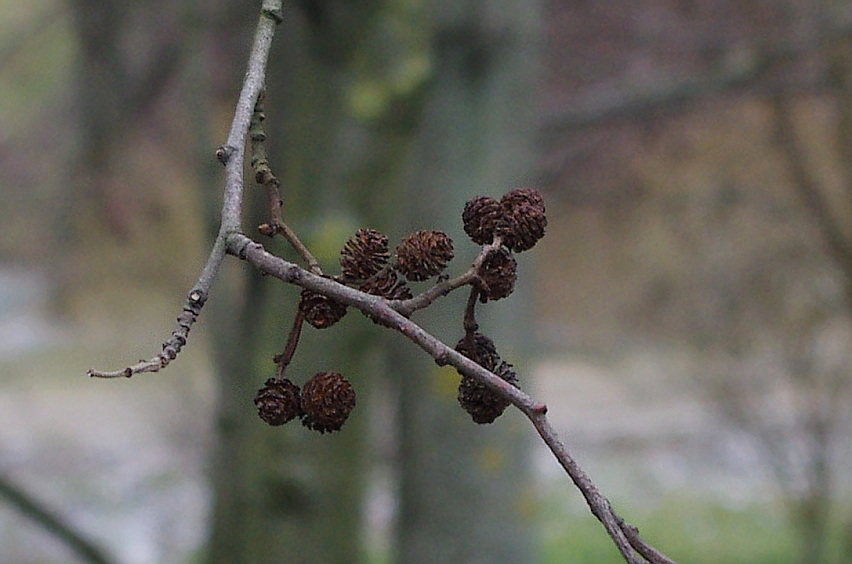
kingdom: Plantae
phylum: Tracheophyta
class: Magnoliopsida
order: Fagales
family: Betulaceae
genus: Alnus
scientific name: Alnus incana
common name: Grey alder
